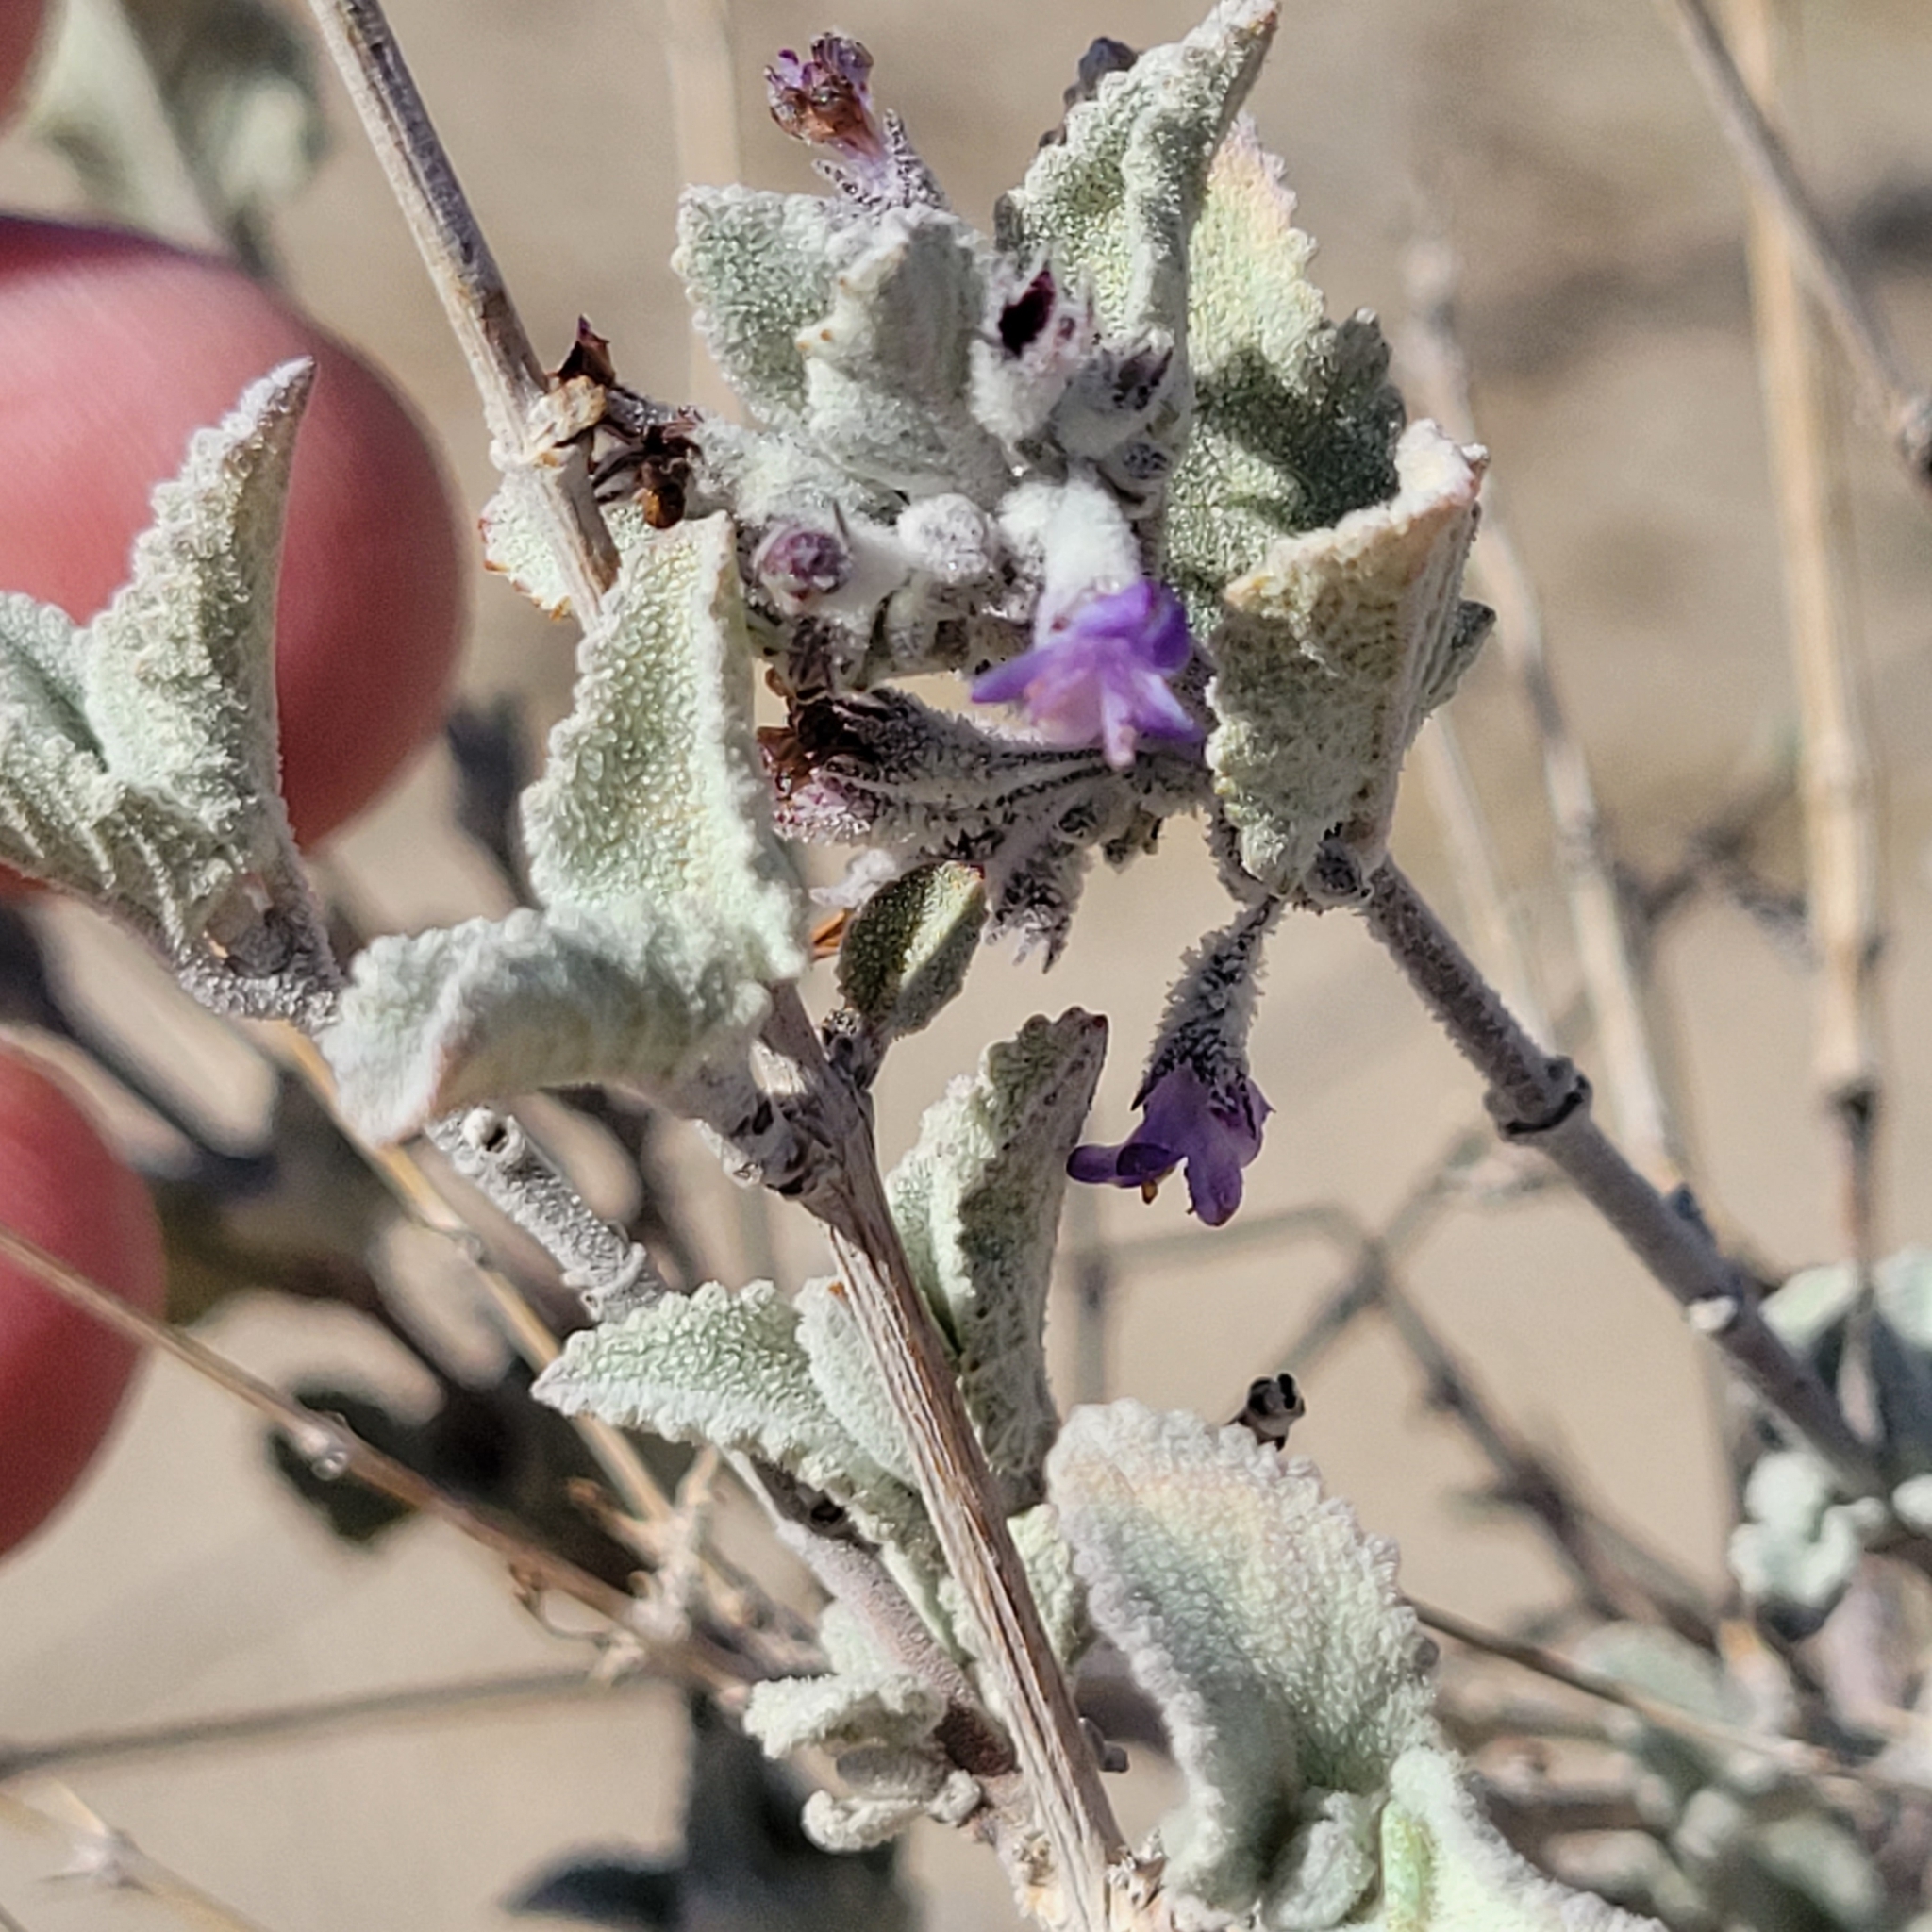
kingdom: Plantae
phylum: Tracheophyta
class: Magnoliopsida
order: Lamiales
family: Lamiaceae
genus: Condea
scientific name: Condea emoryi
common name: Chia
